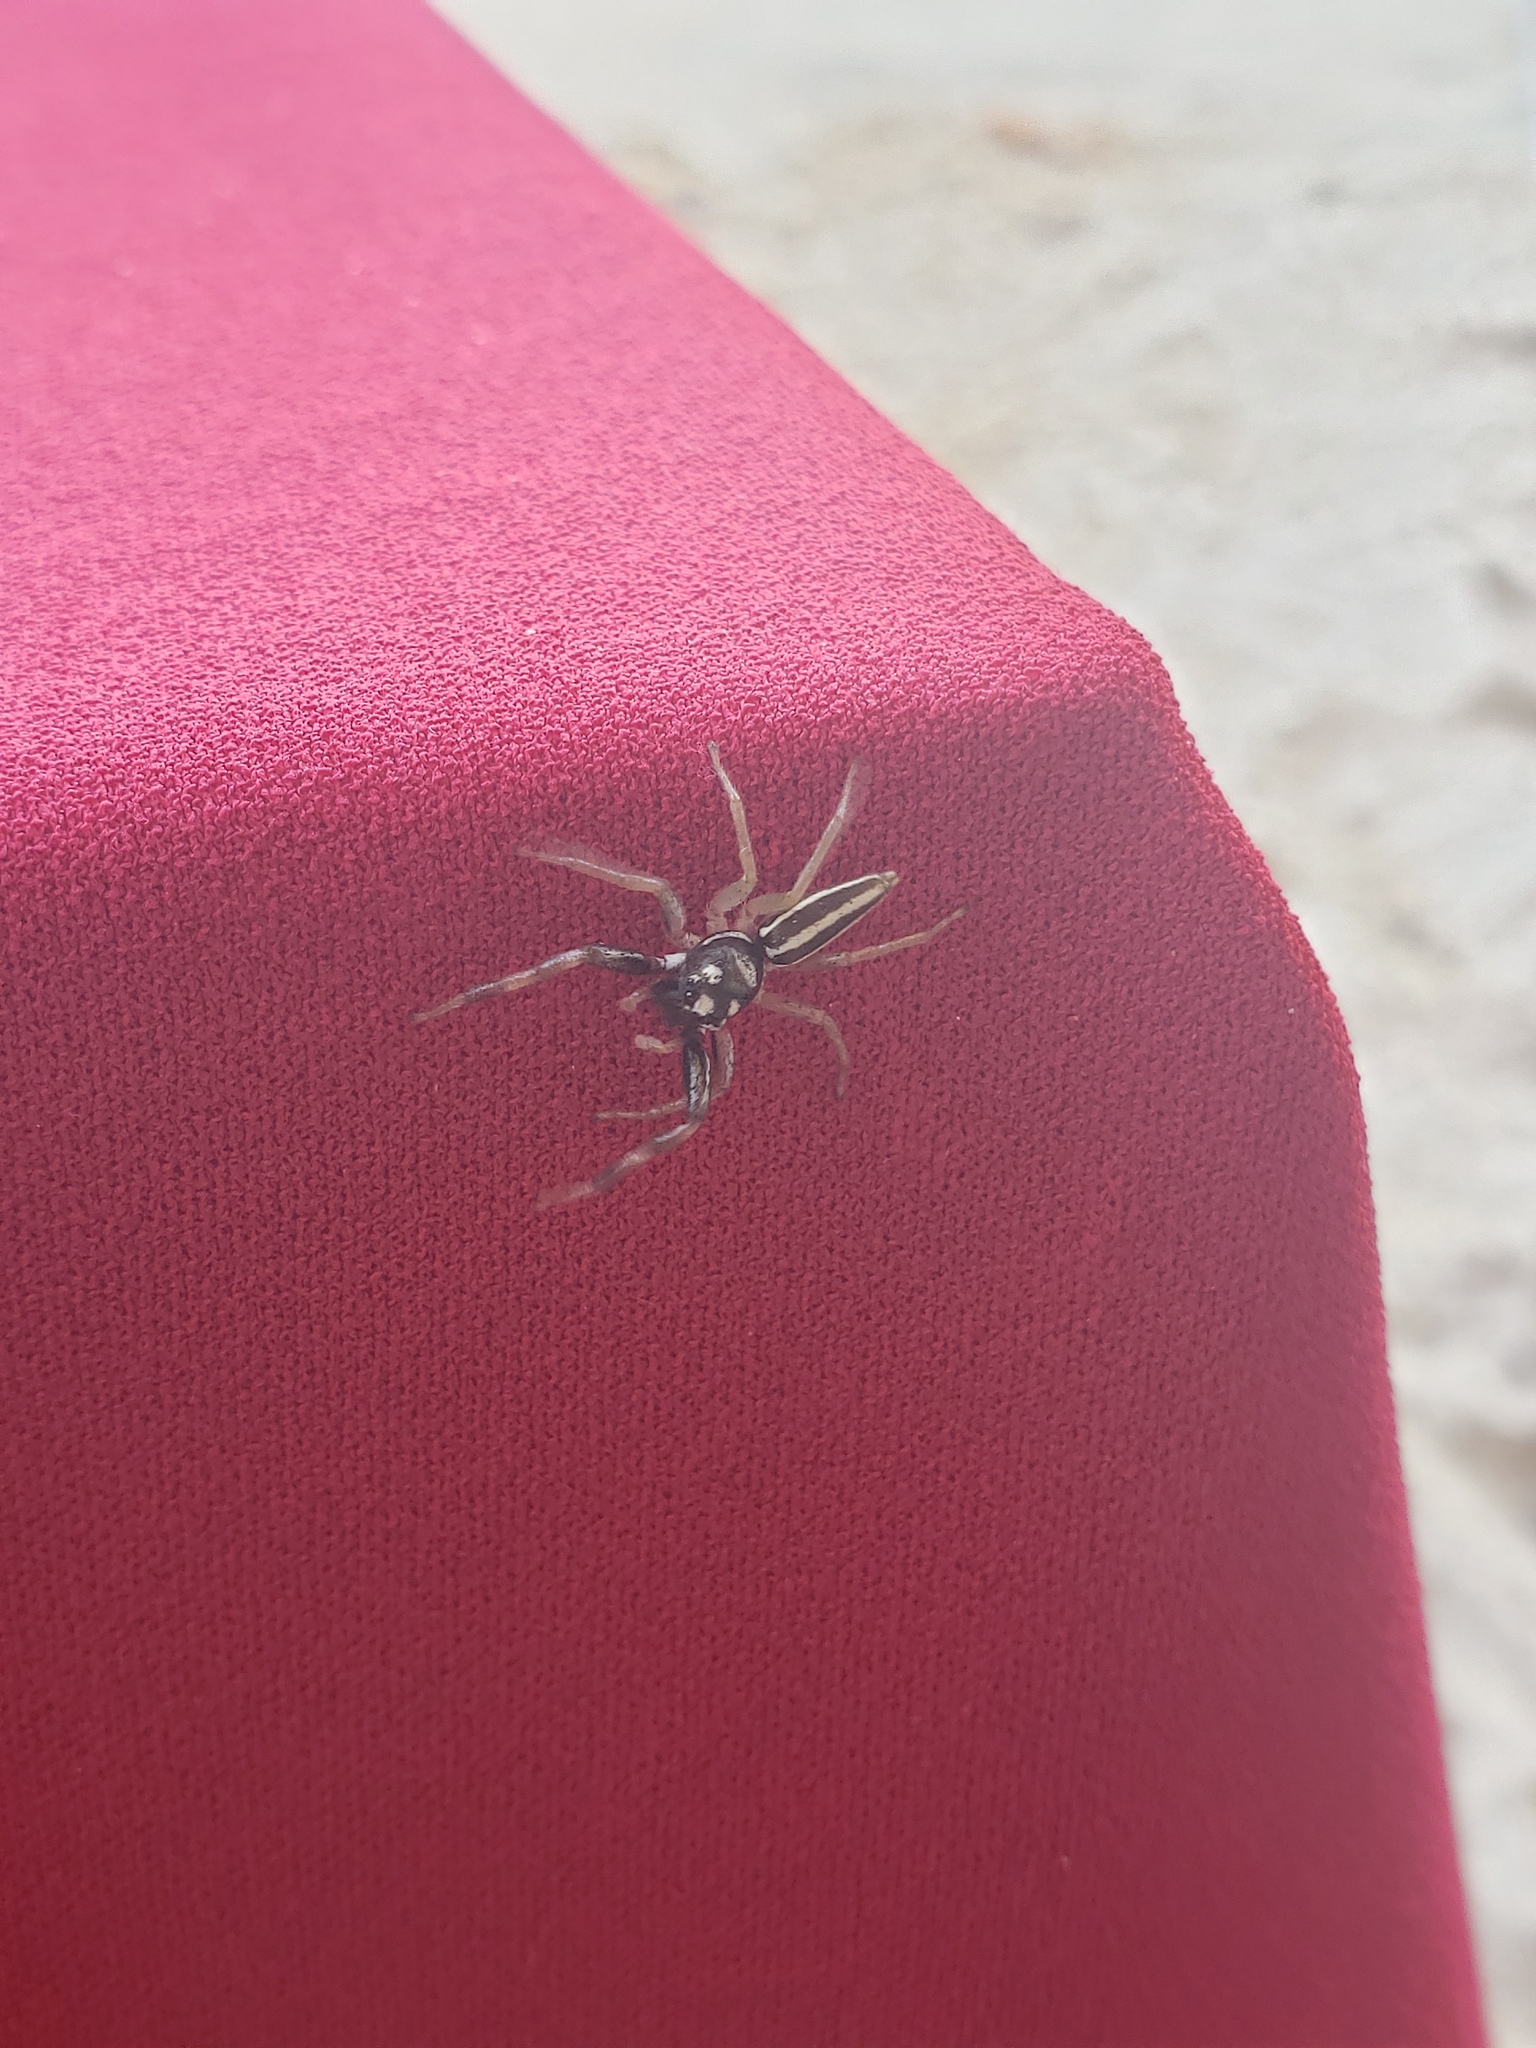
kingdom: Animalia
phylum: Arthropoda
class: Arachnida
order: Araneae
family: Salticidae
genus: Proszynskia
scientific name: Proszynskia diatreta
